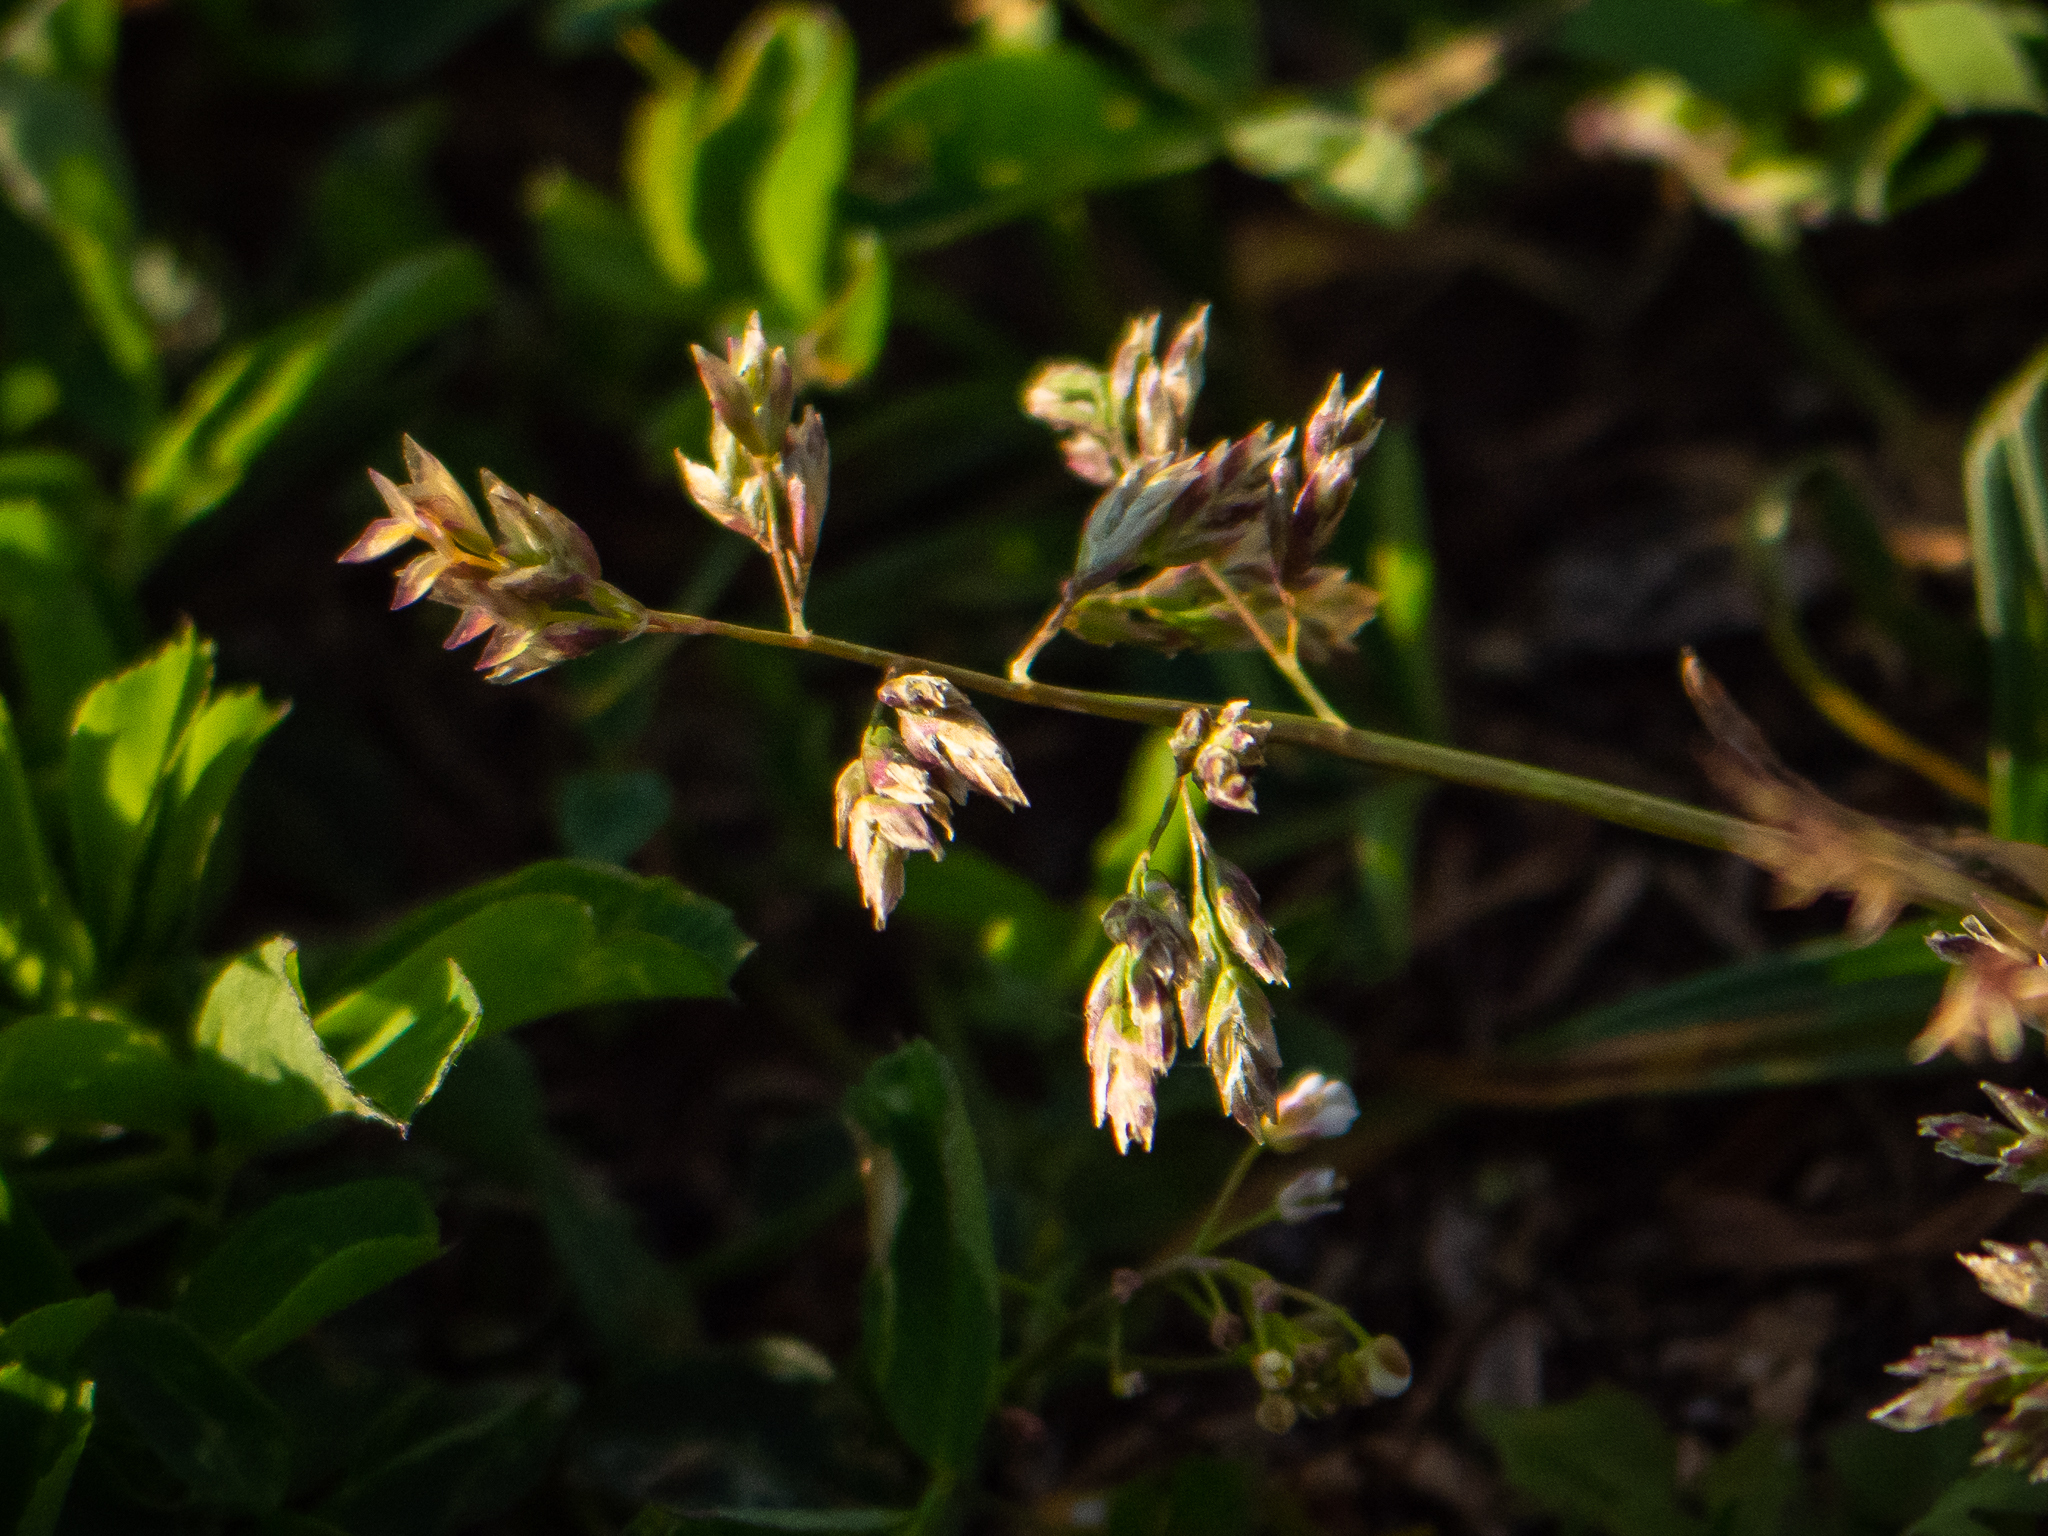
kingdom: Plantae
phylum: Tracheophyta
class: Liliopsida
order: Poales
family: Poaceae
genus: Poa
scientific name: Poa annua
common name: Annual bluegrass
